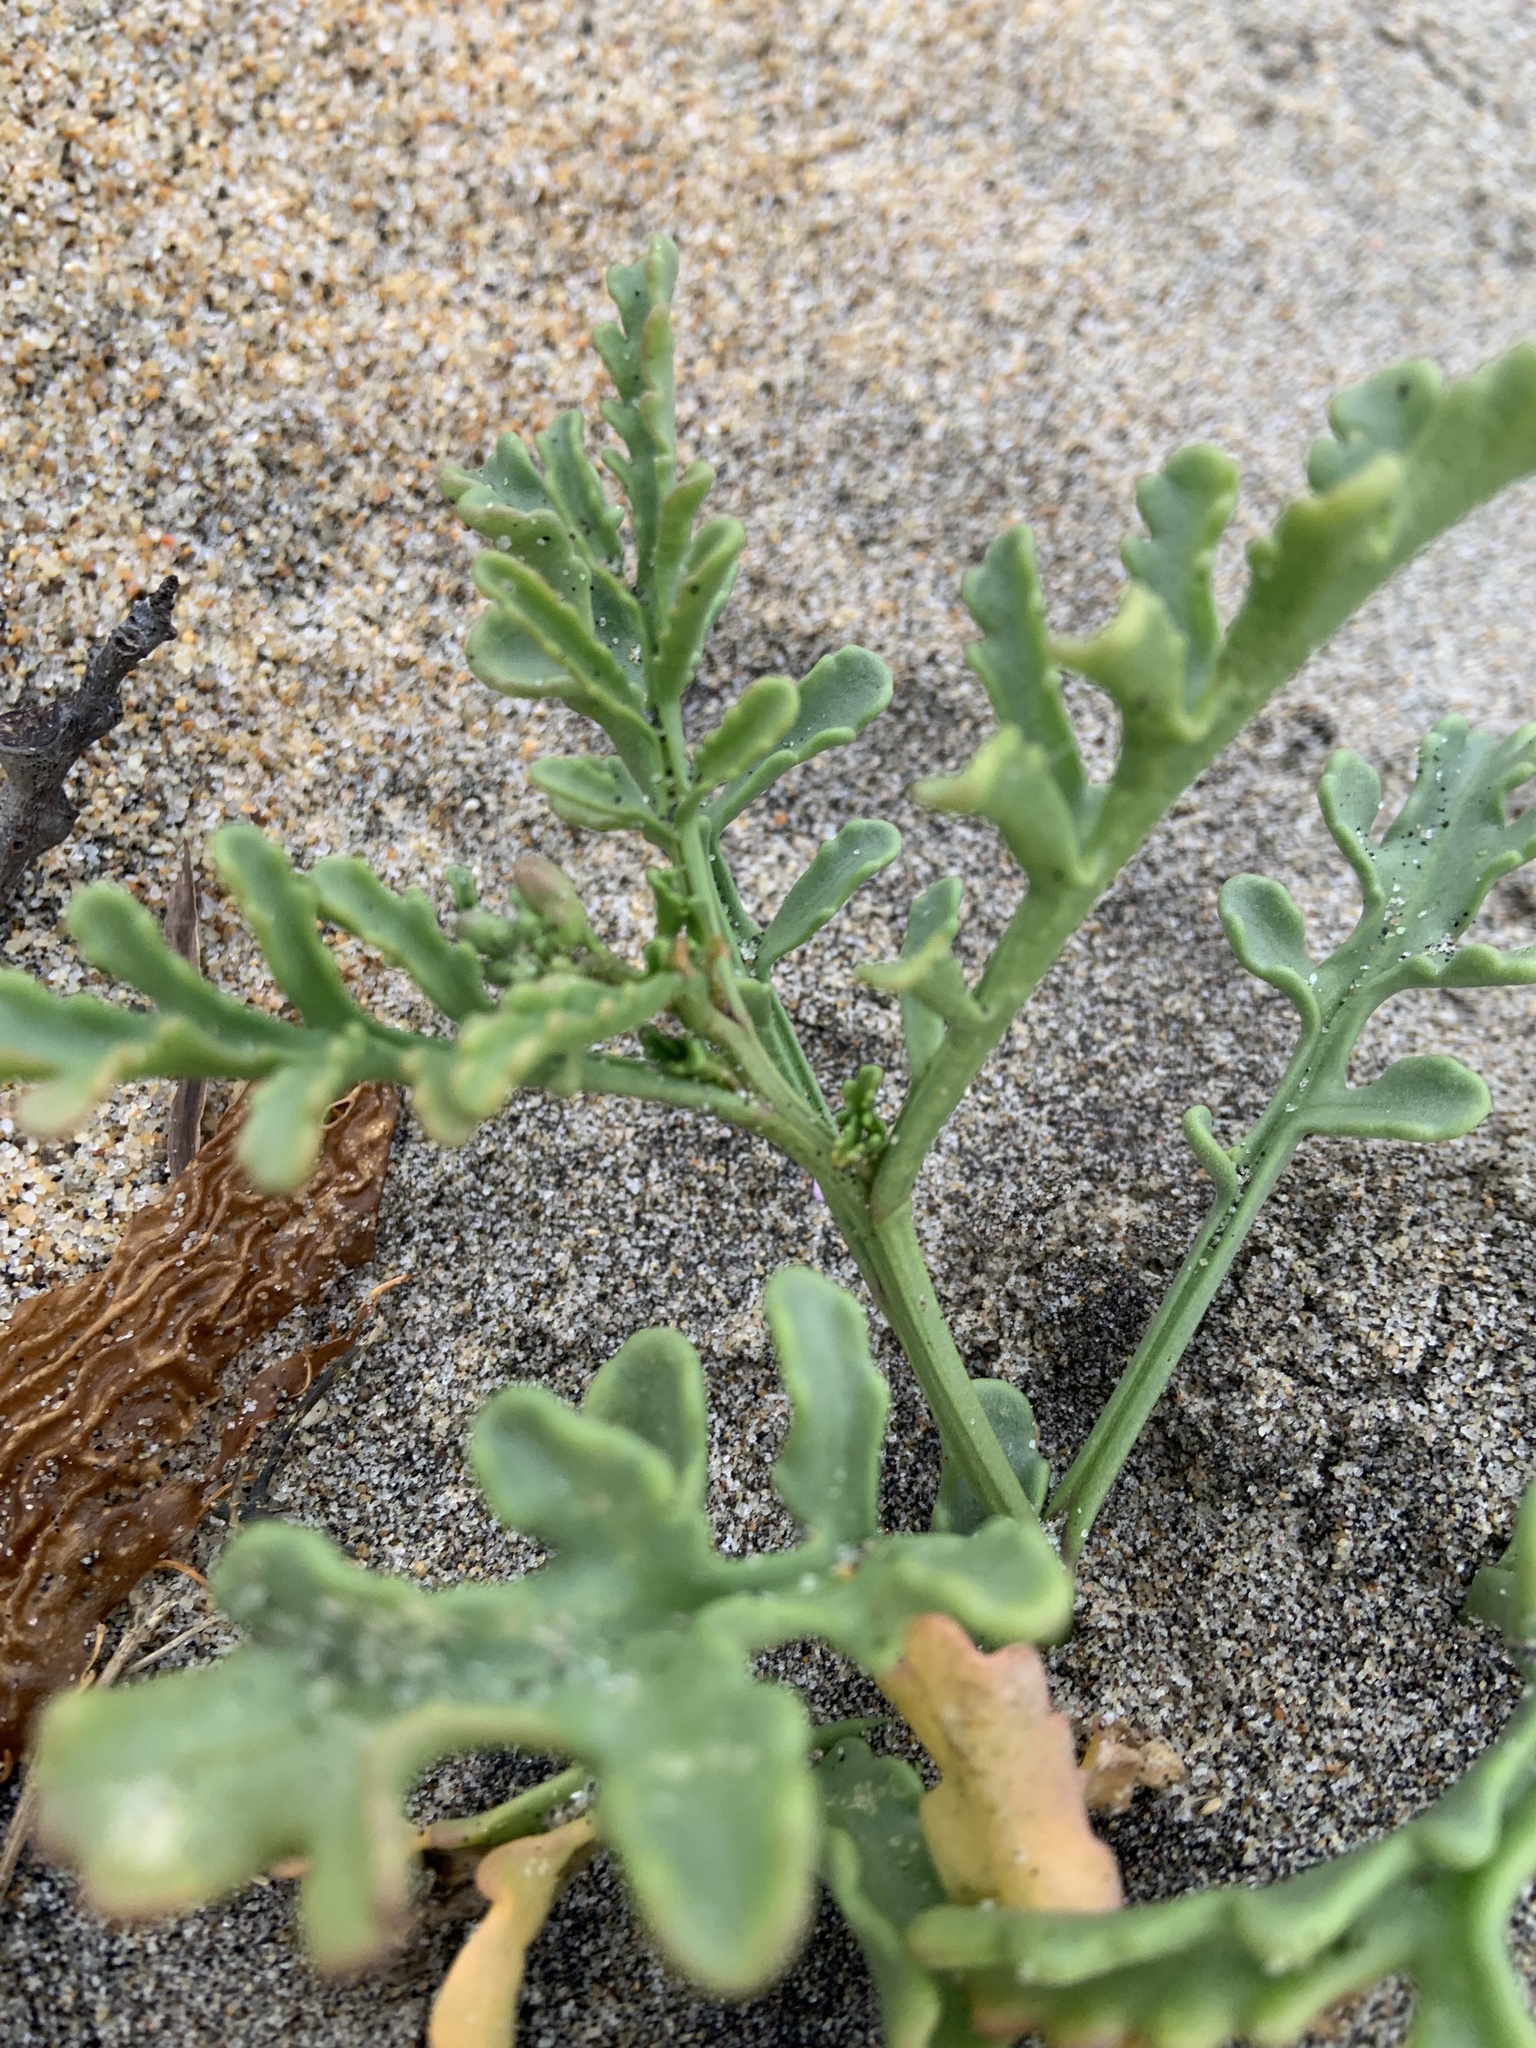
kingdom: Plantae
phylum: Tracheophyta
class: Magnoliopsida
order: Brassicales
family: Brassicaceae
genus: Cakile
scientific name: Cakile maritima
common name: Sea rocket
